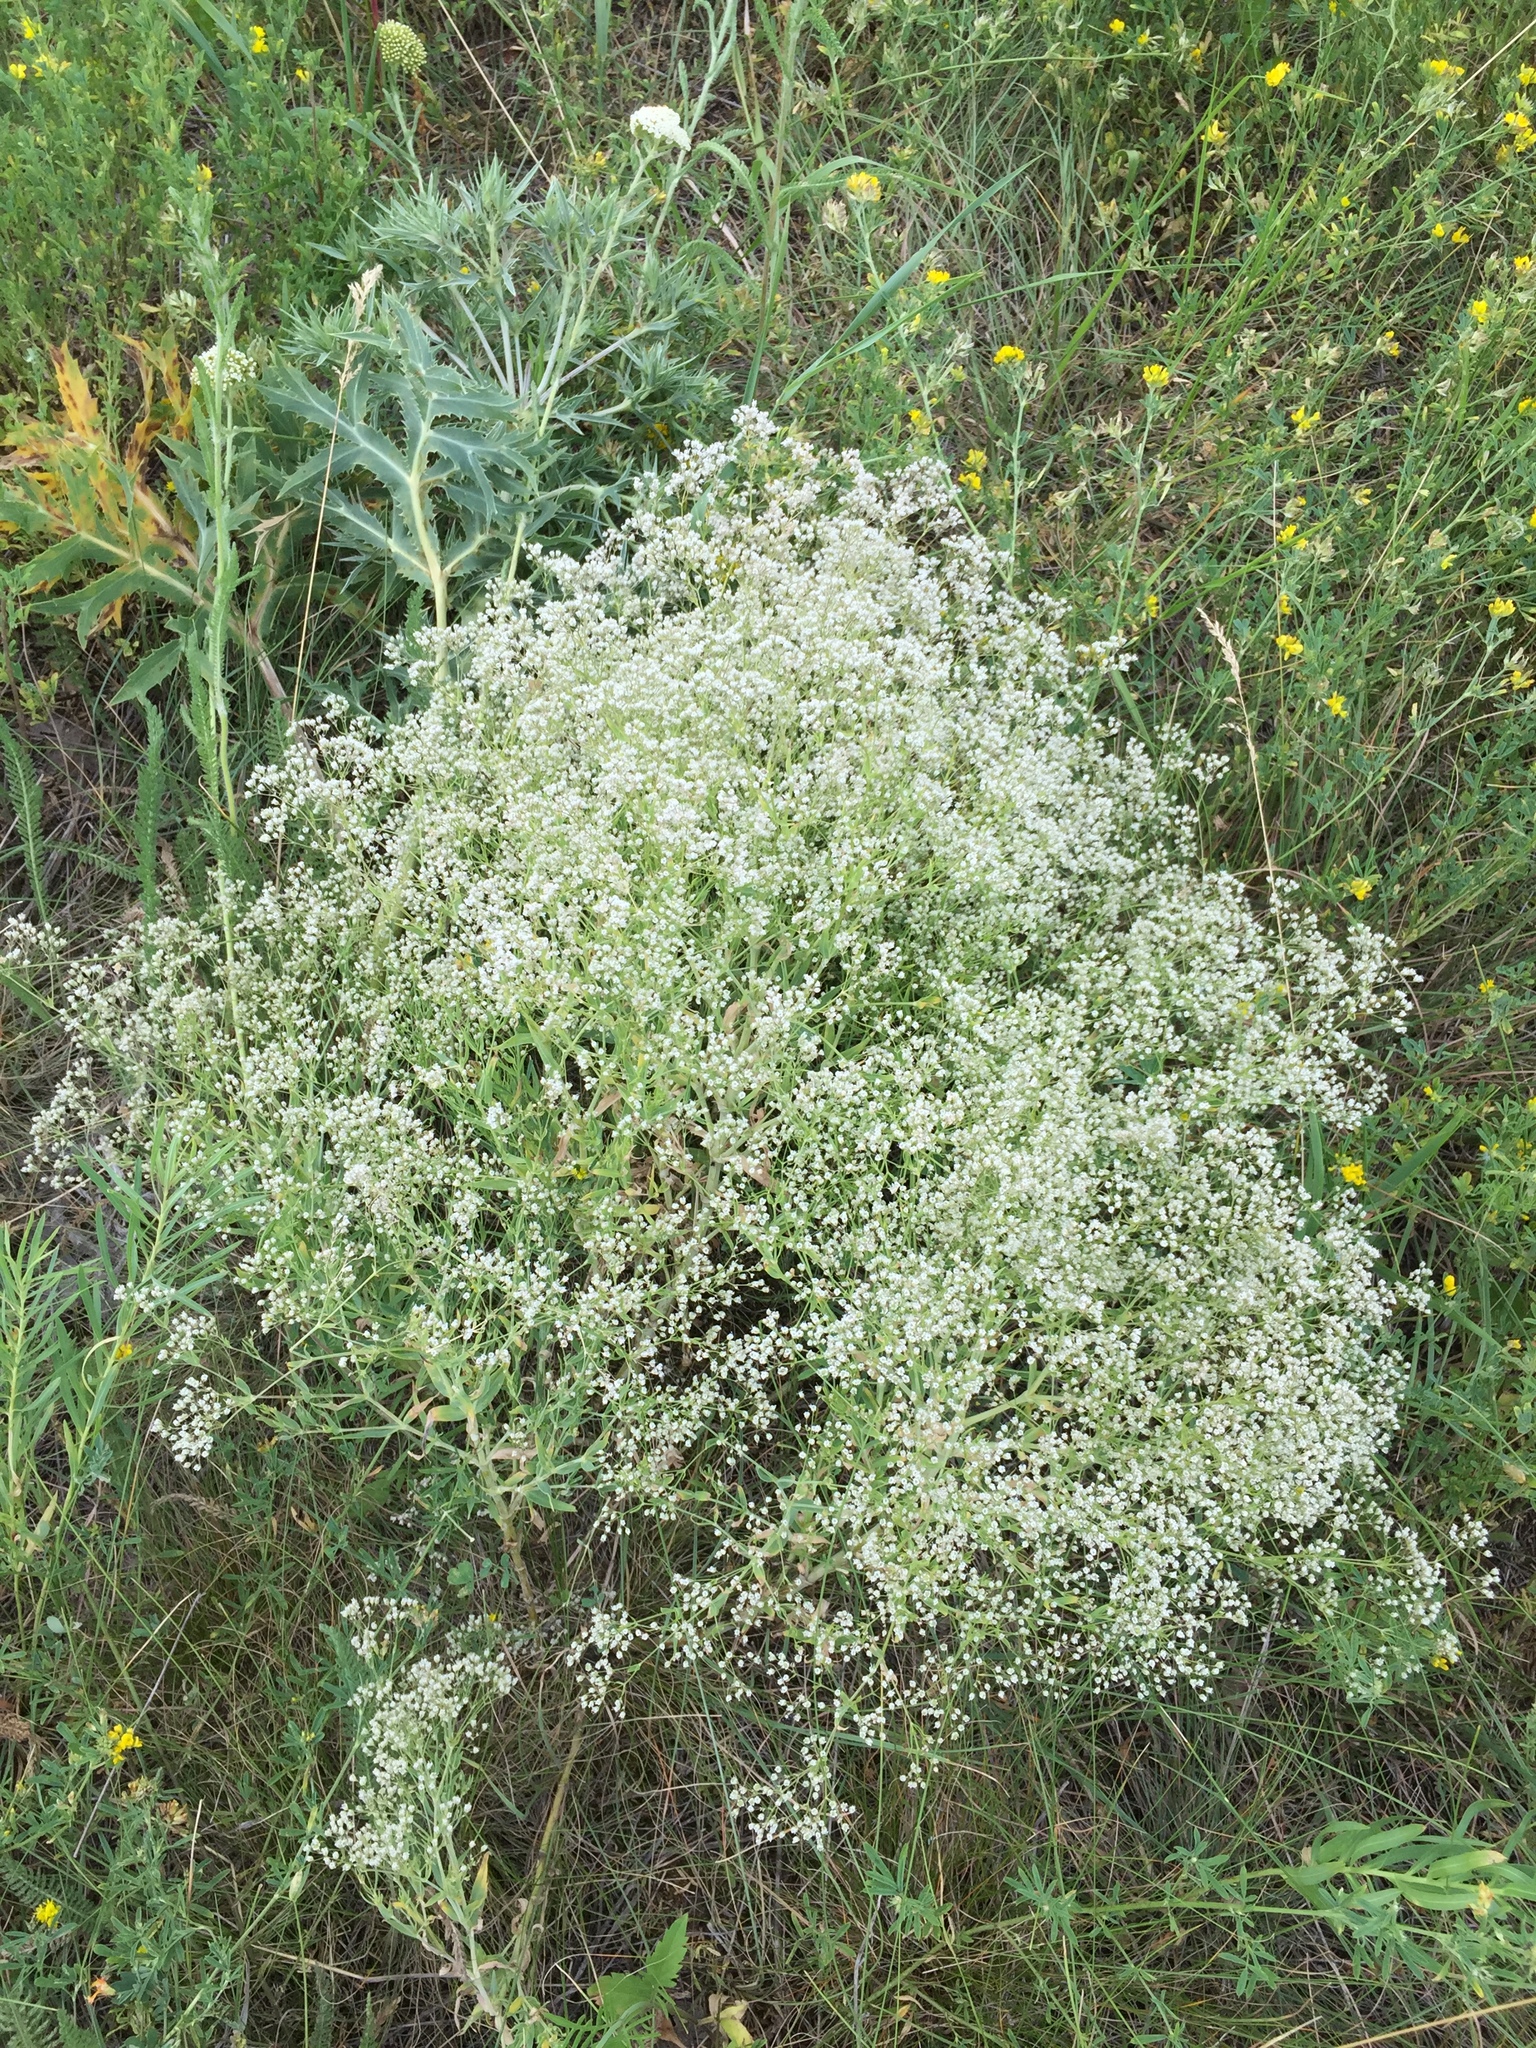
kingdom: Plantae
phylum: Tracheophyta
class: Magnoliopsida
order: Caryophyllales
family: Caryophyllaceae
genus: Gypsophila
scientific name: Gypsophila paniculata
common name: Baby's-breath
